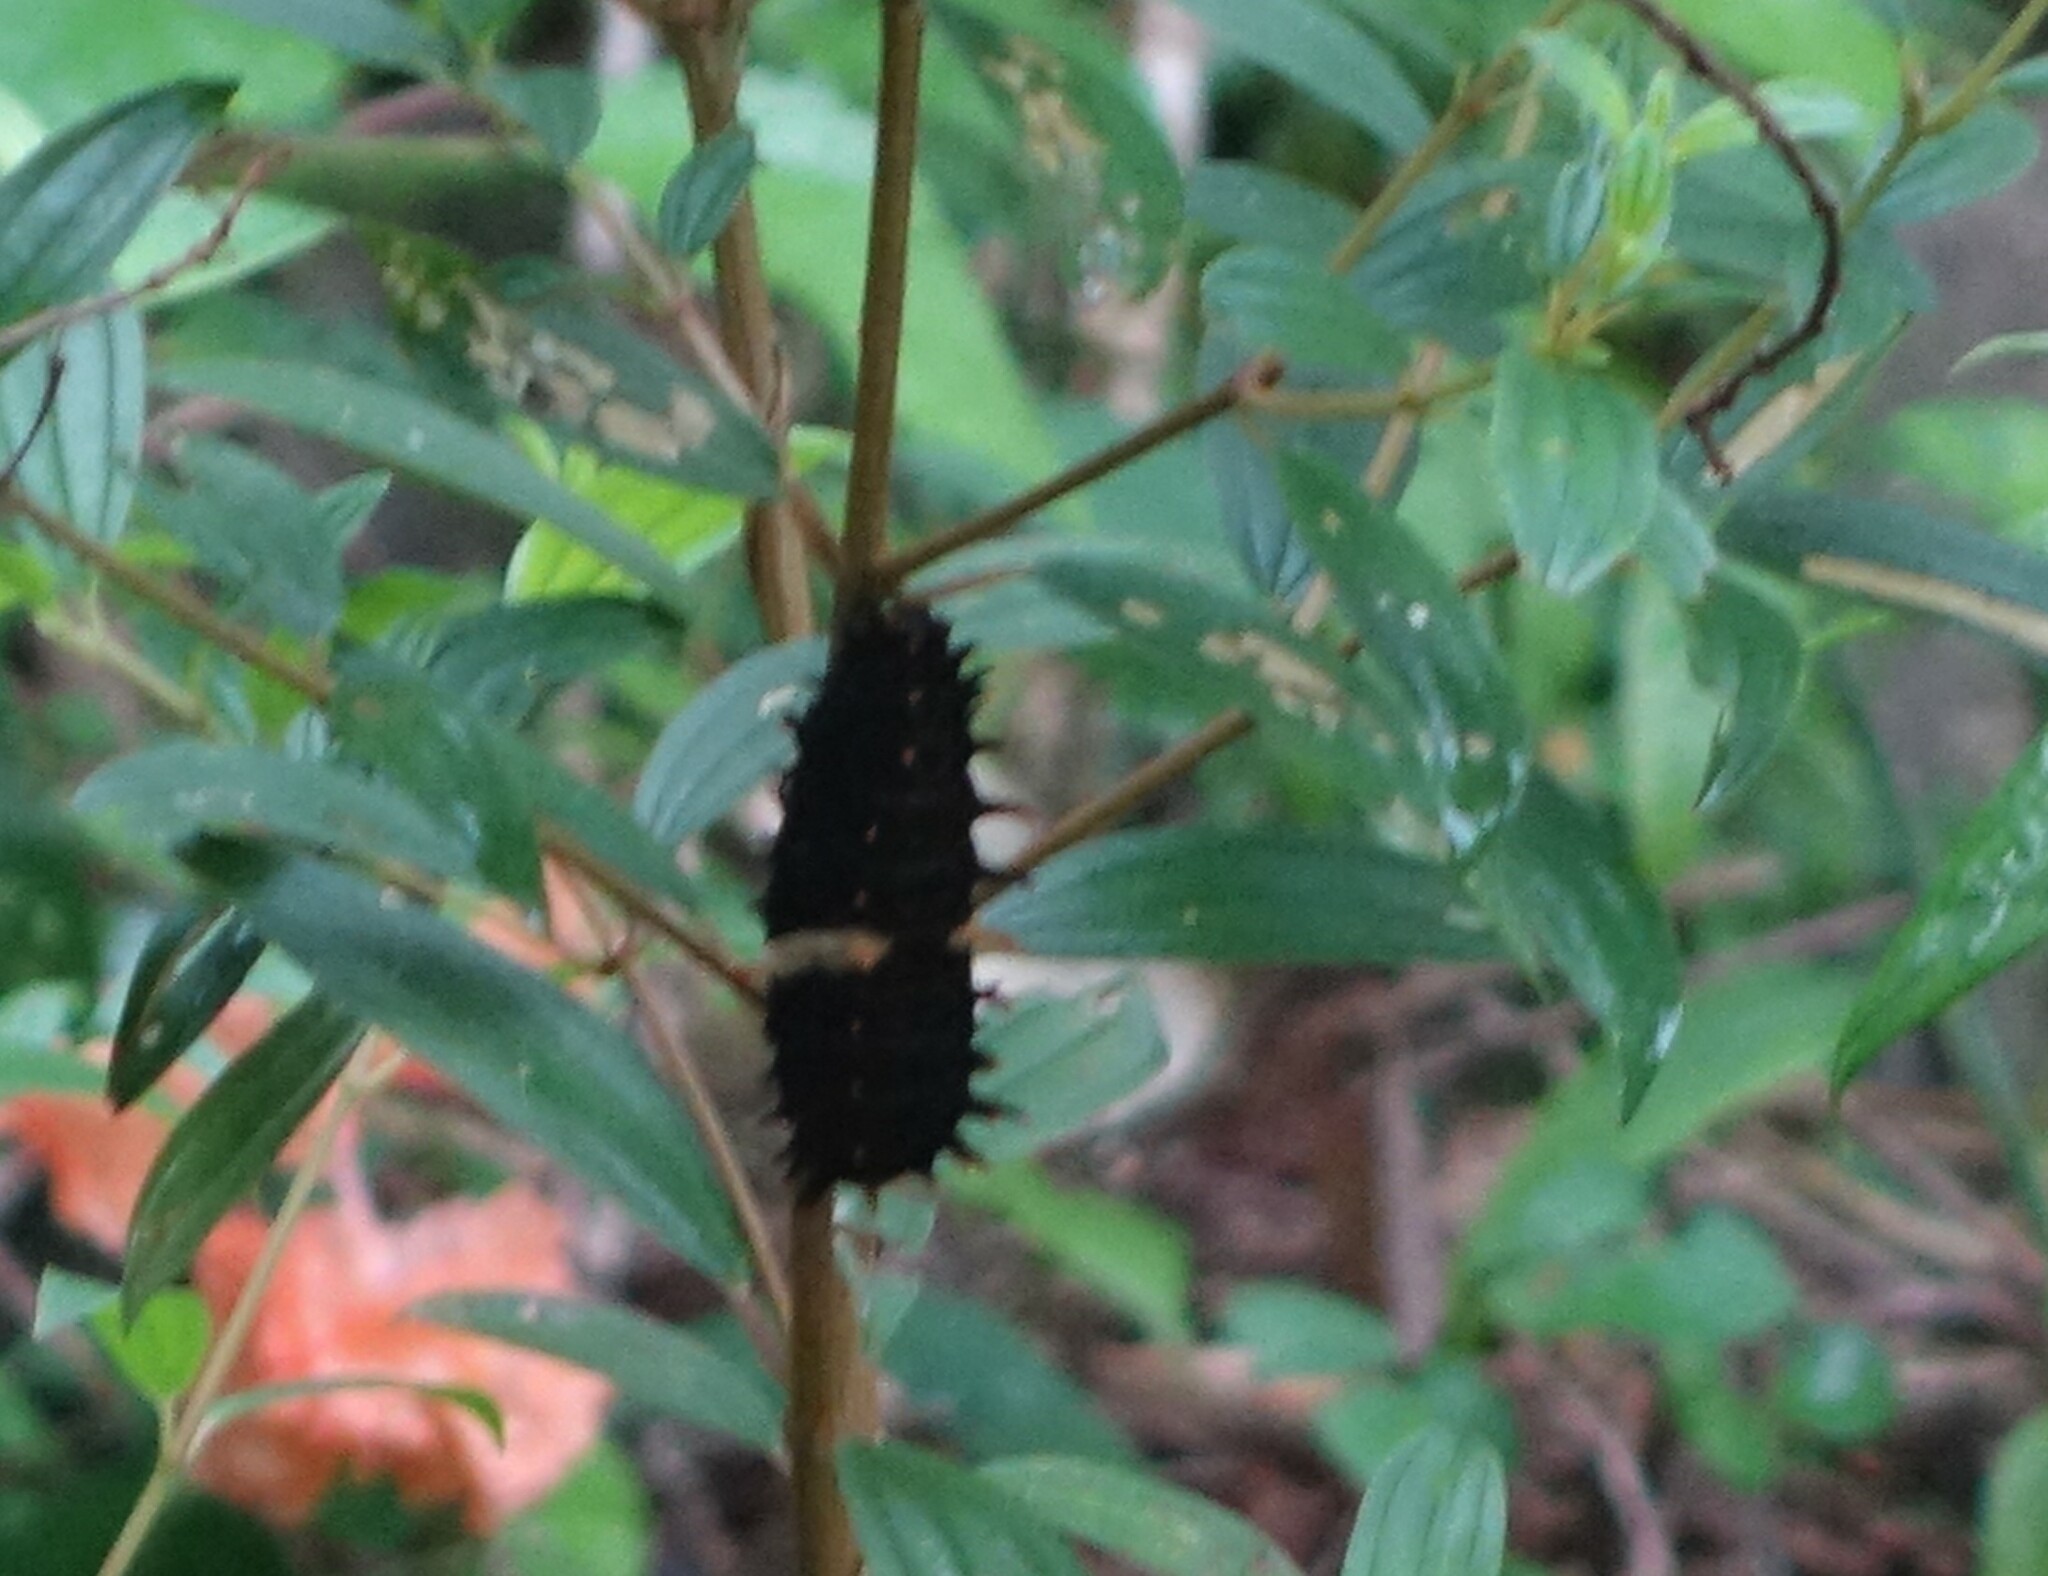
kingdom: Animalia
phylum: Arthropoda
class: Insecta
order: Lepidoptera
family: Papilionidae
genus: Troides
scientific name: Troides minos
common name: Malabar birdwing
